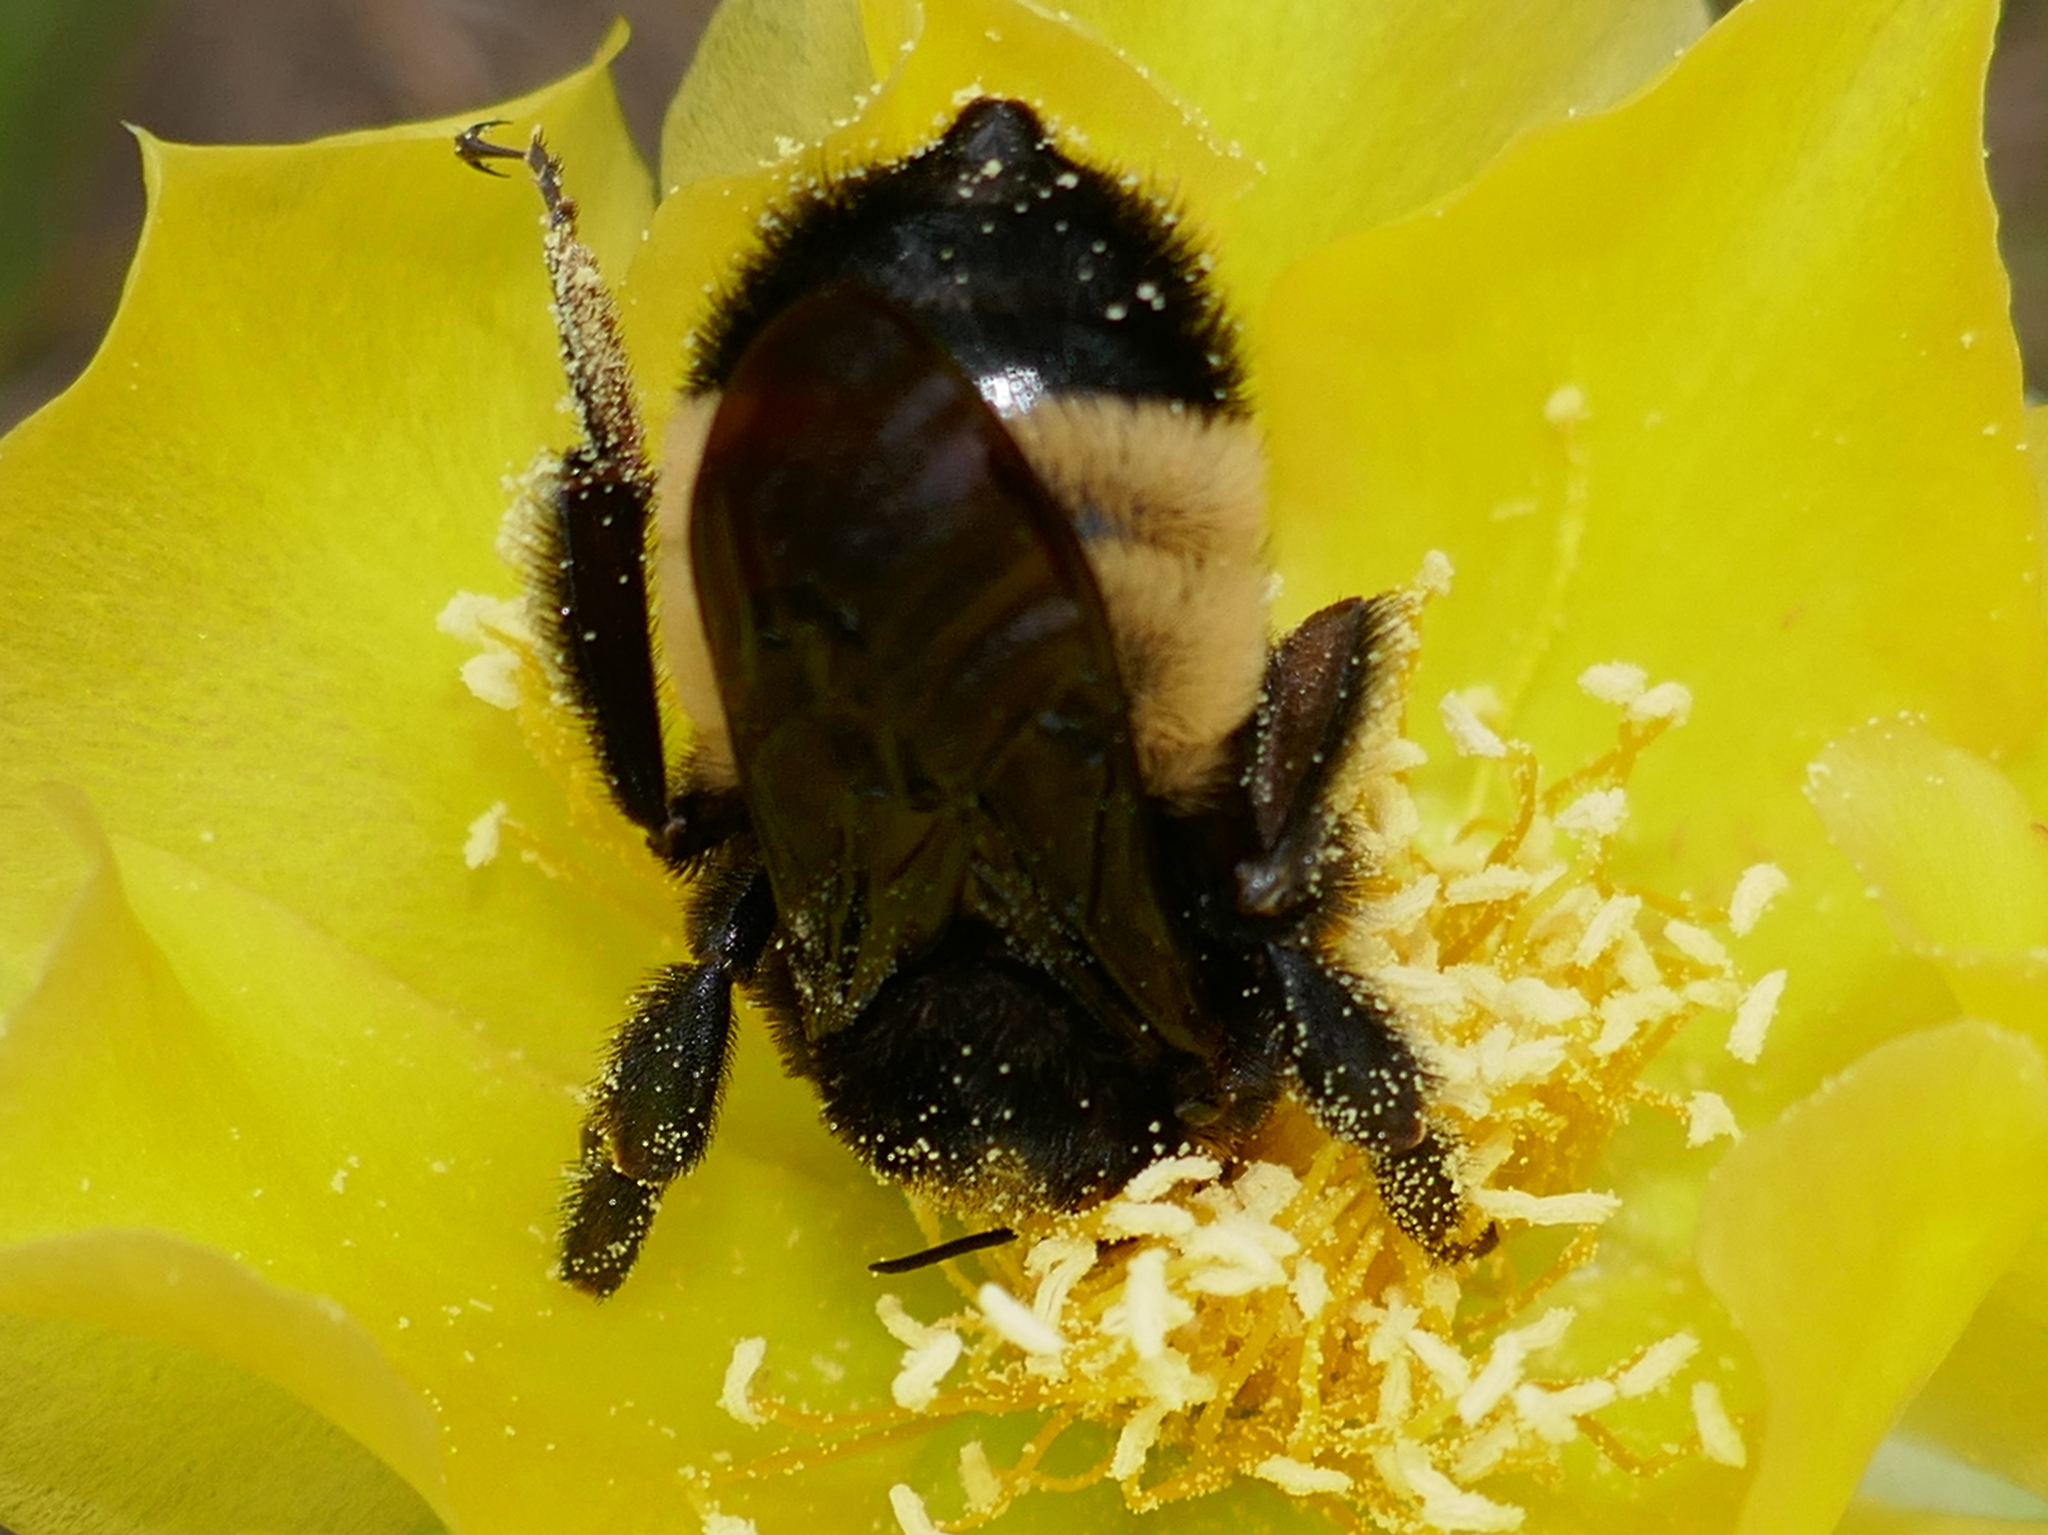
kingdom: Animalia
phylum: Arthropoda
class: Insecta
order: Hymenoptera
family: Apidae
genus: Bombus
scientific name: Bombus pensylvanicus
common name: Bumble bee
